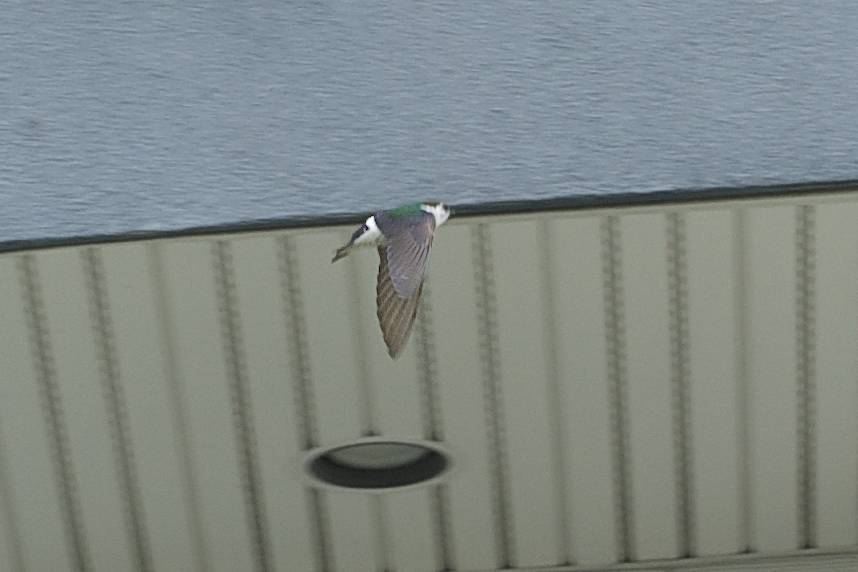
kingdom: Animalia
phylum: Chordata
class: Aves
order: Passeriformes
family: Hirundinidae
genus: Tachycineta
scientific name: Tachycineta thalassina
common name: Violet-green swallow
